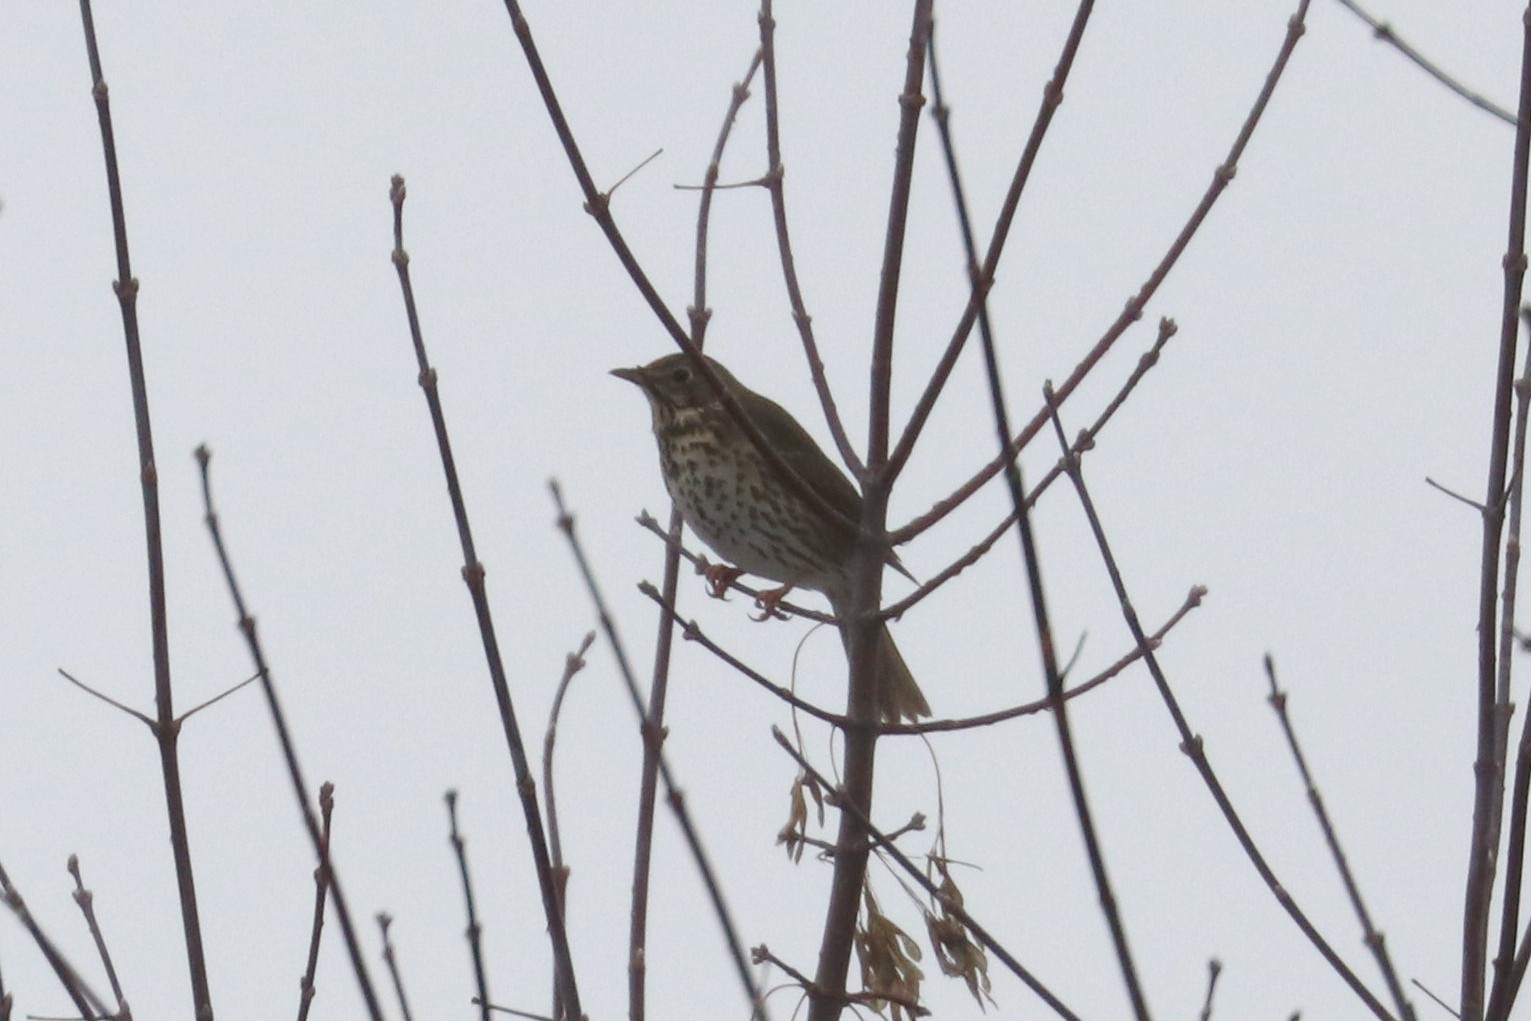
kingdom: Animalia
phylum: Chordata
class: Aves
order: Passeriformes
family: Turdidae
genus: Turdus
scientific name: Turdus philomelos
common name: Song thrush
